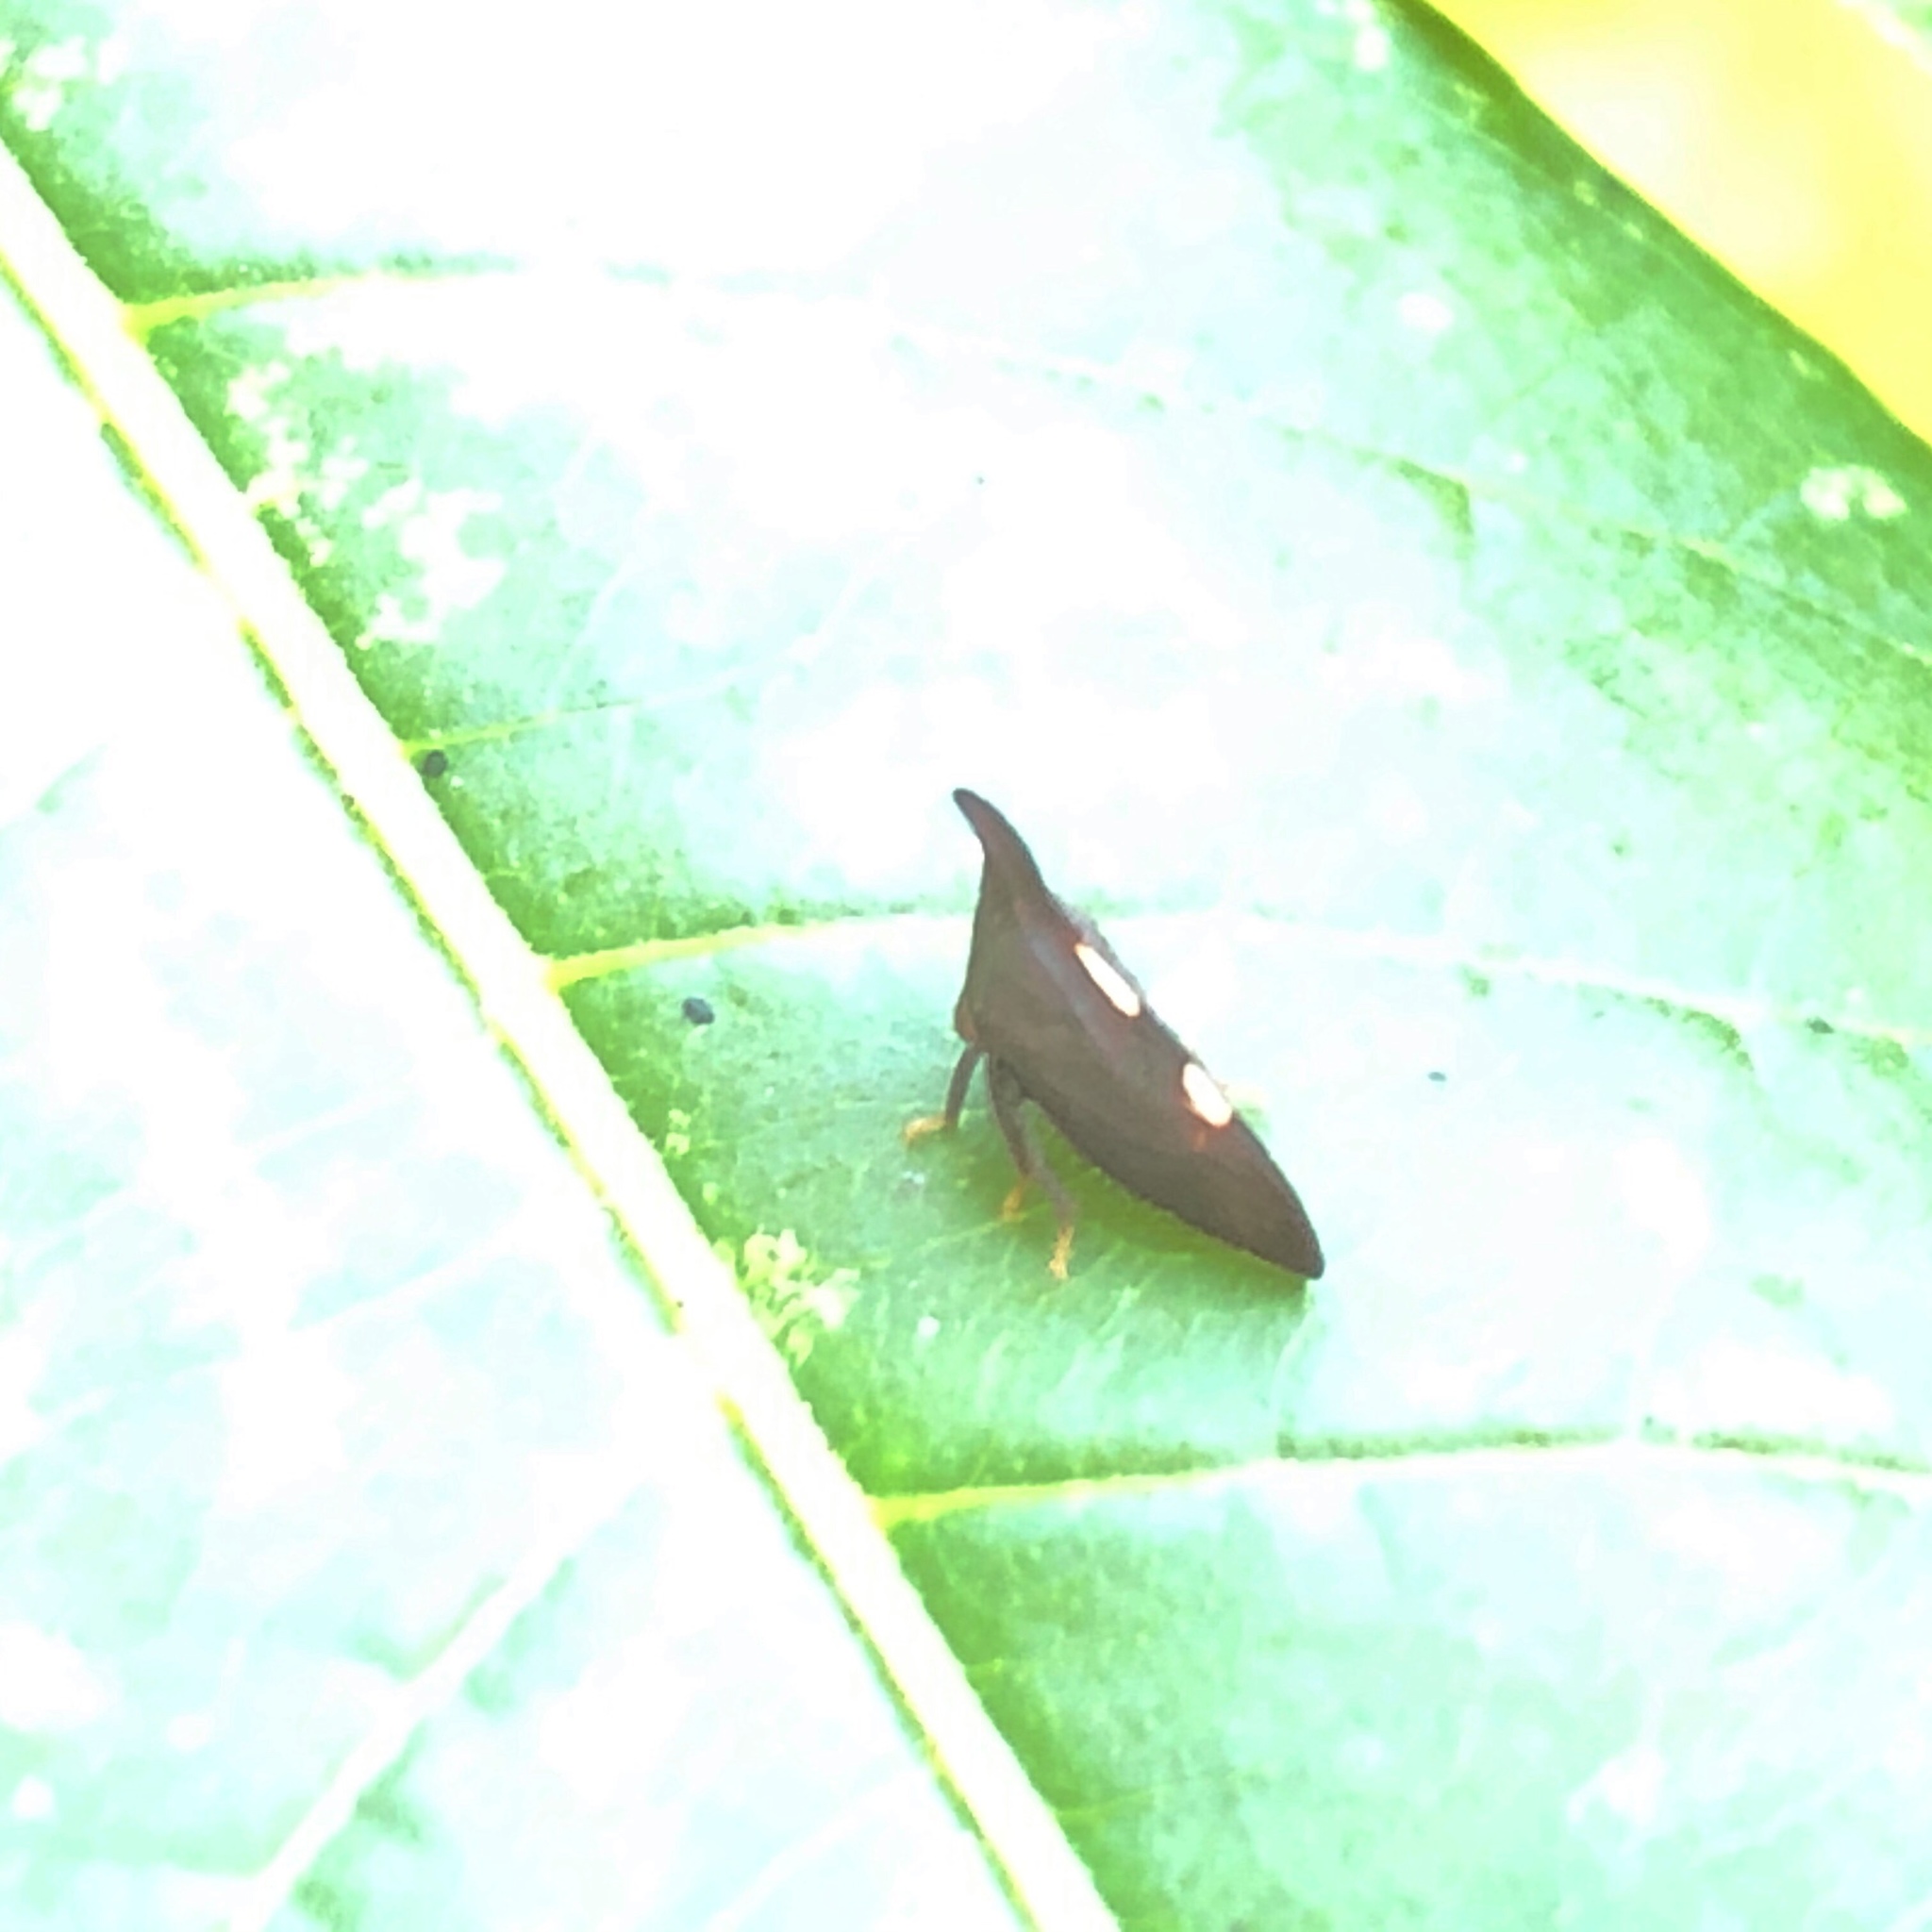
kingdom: Animalia
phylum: Arthropoda
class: Insecta
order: Hemiptera
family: Membracidae
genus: Enchenopa
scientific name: Enchenopa
